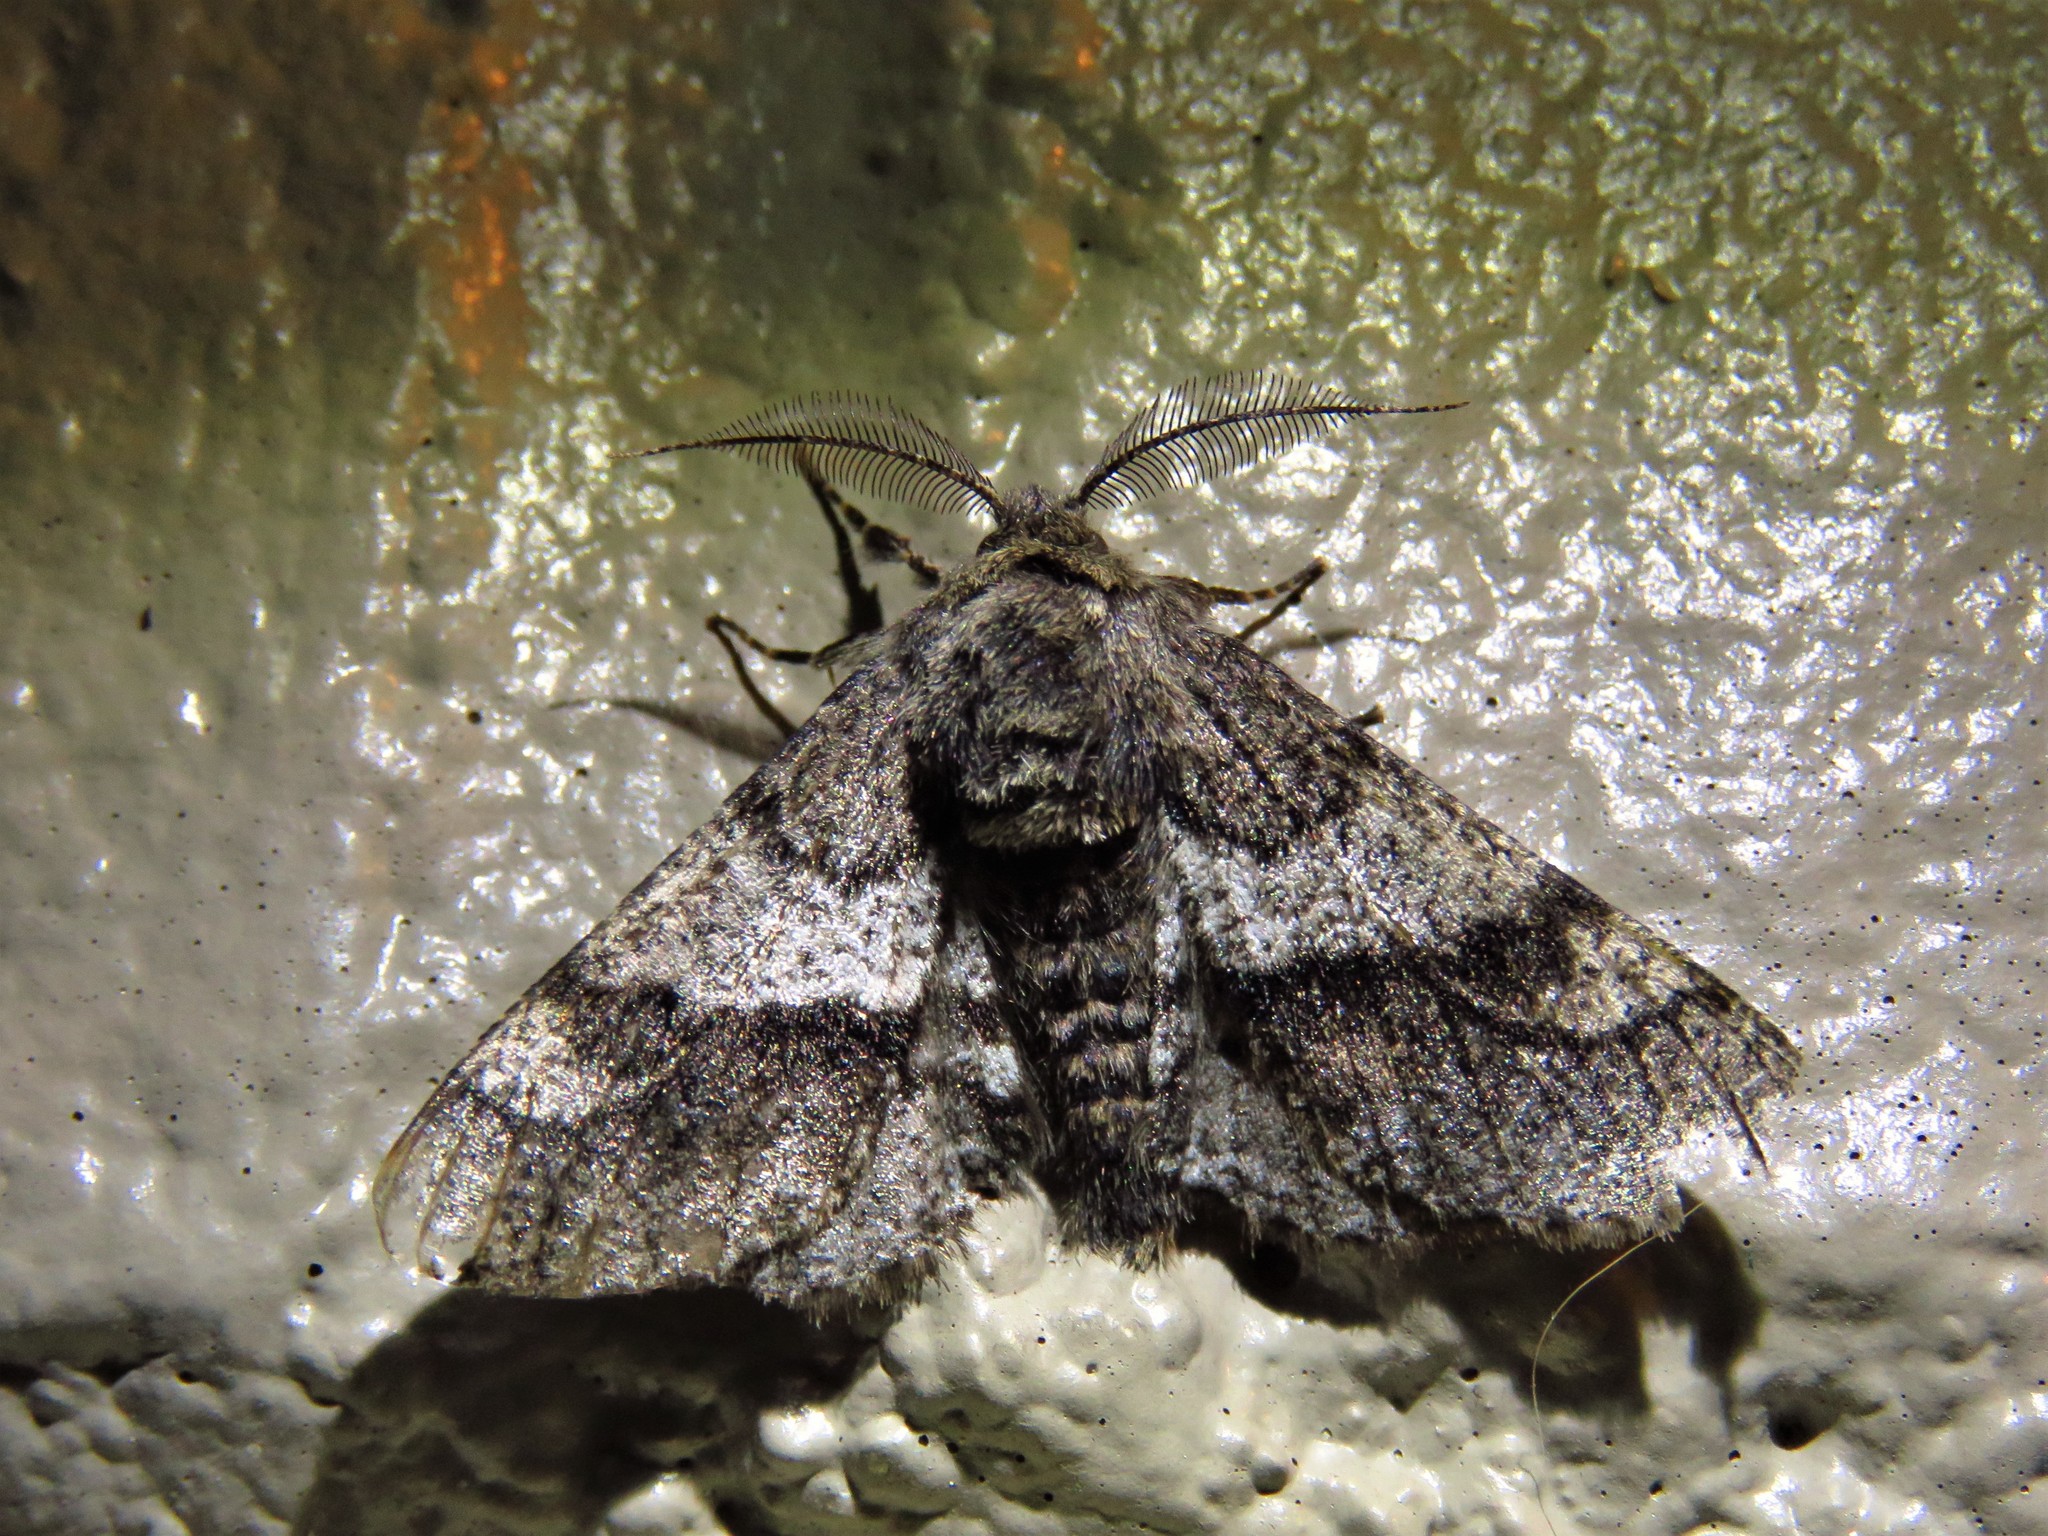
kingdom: Animalia
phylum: Arthropoda
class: Insecta
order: Lepidoptera
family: Geometridae
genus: Lycia
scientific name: Lycia ypsilon
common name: Wooly gray
